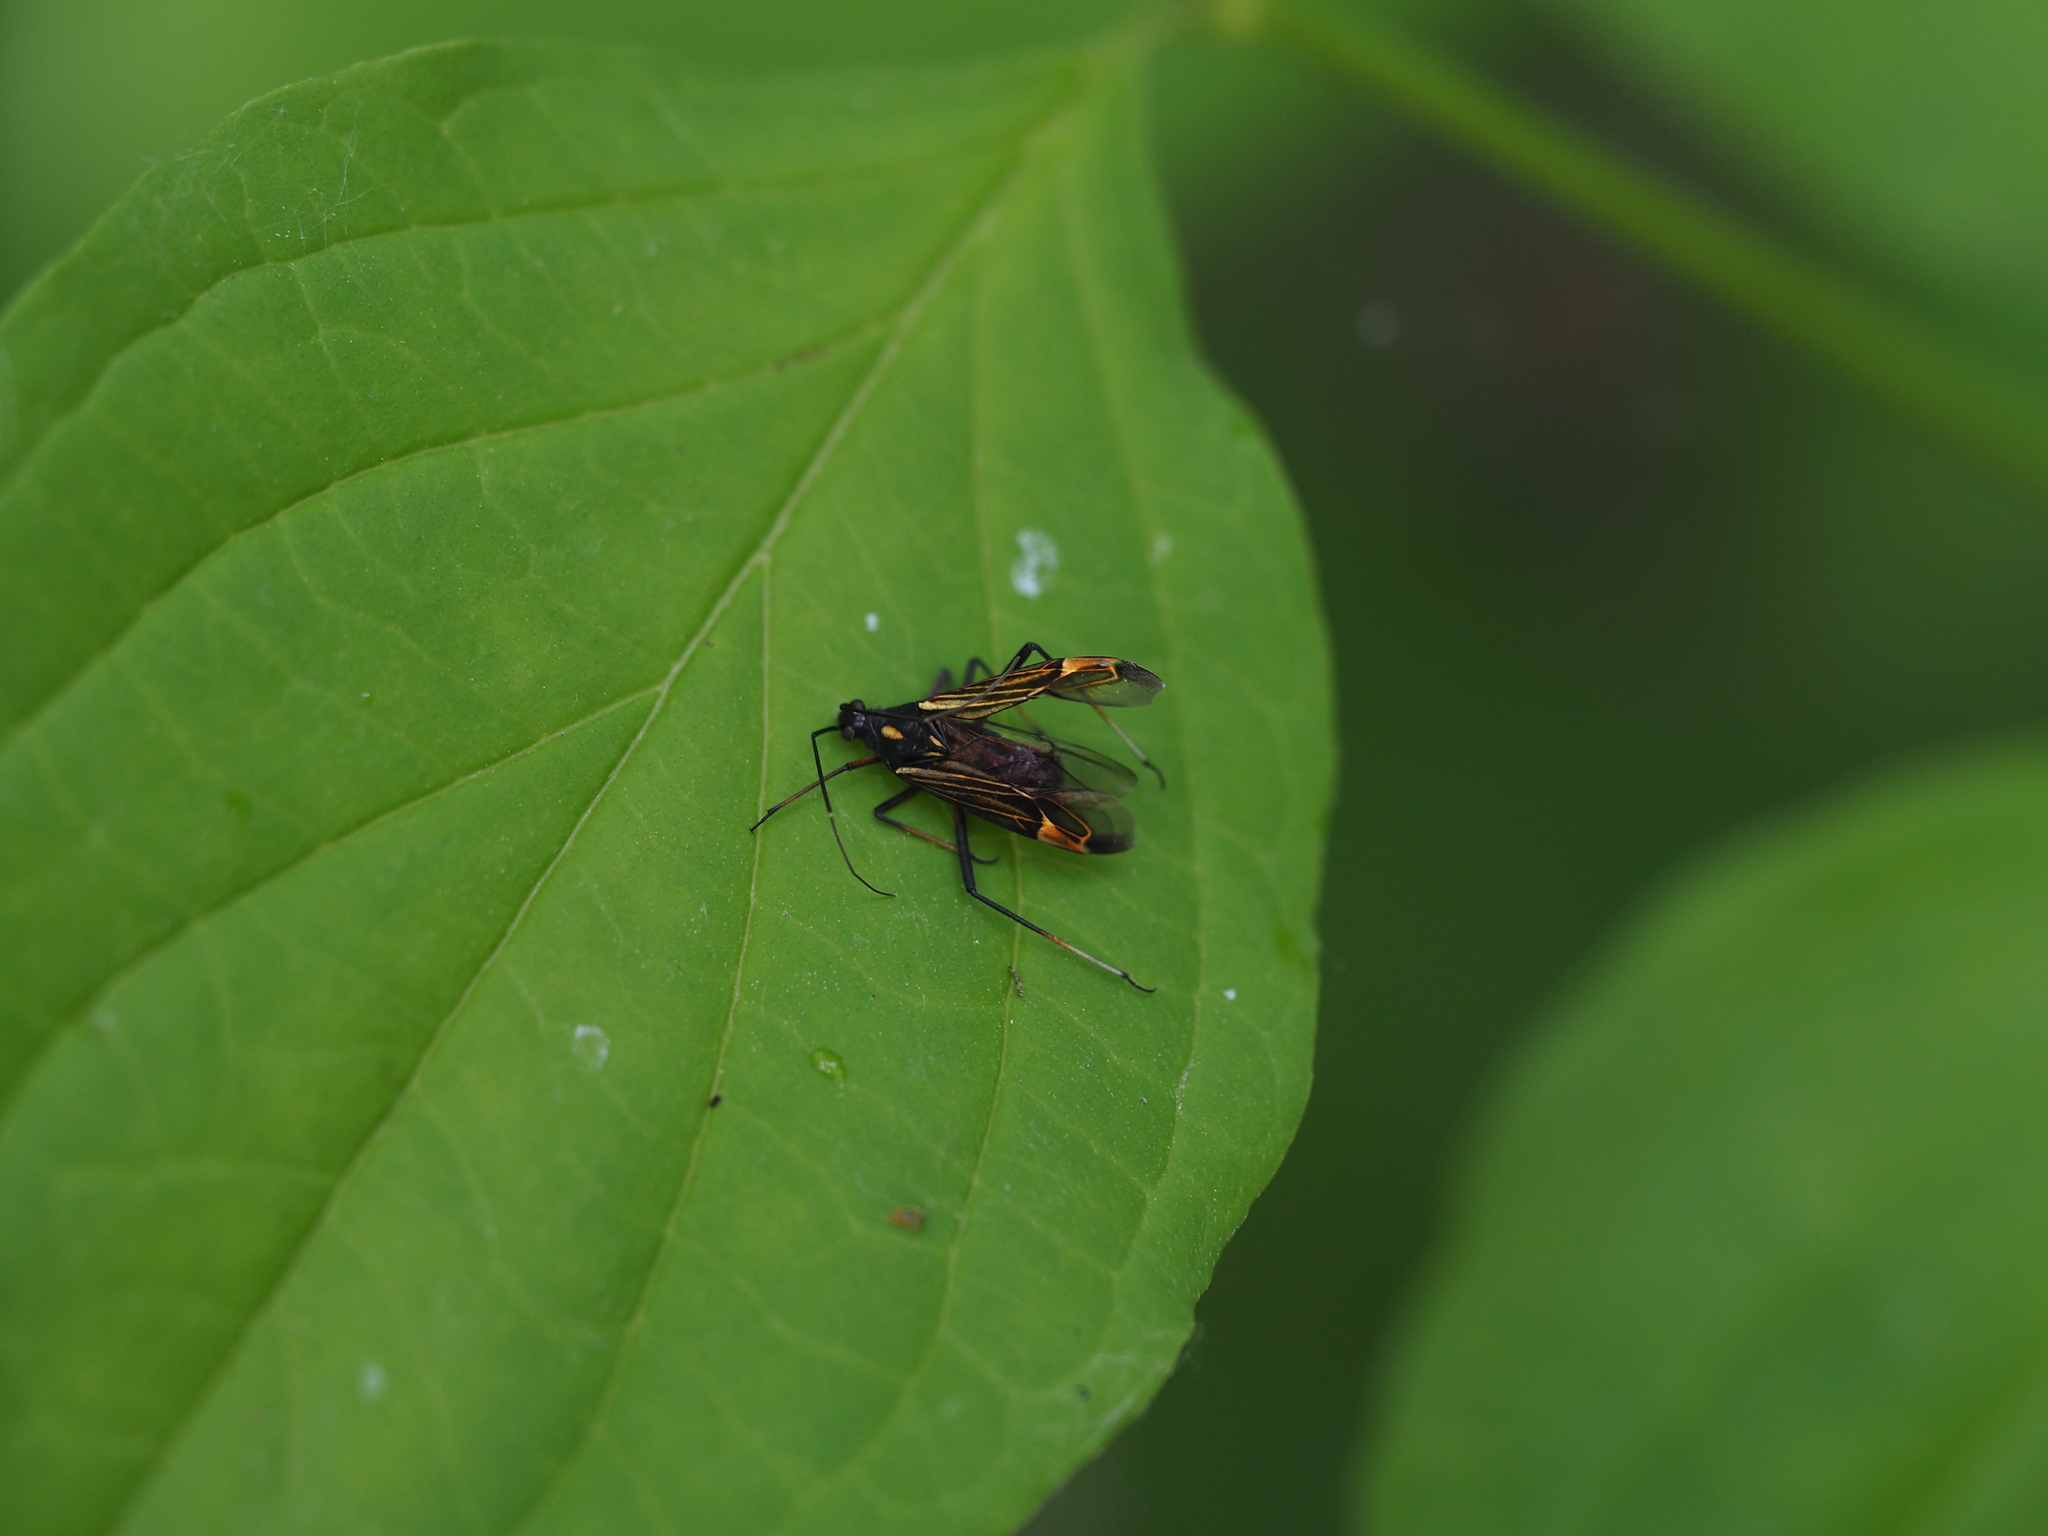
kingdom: Animalia
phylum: Arthropoda
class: Insecta
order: Hemiptera
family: Miridae
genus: Miris
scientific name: Miris striatus
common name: Fine streaked bugkin
